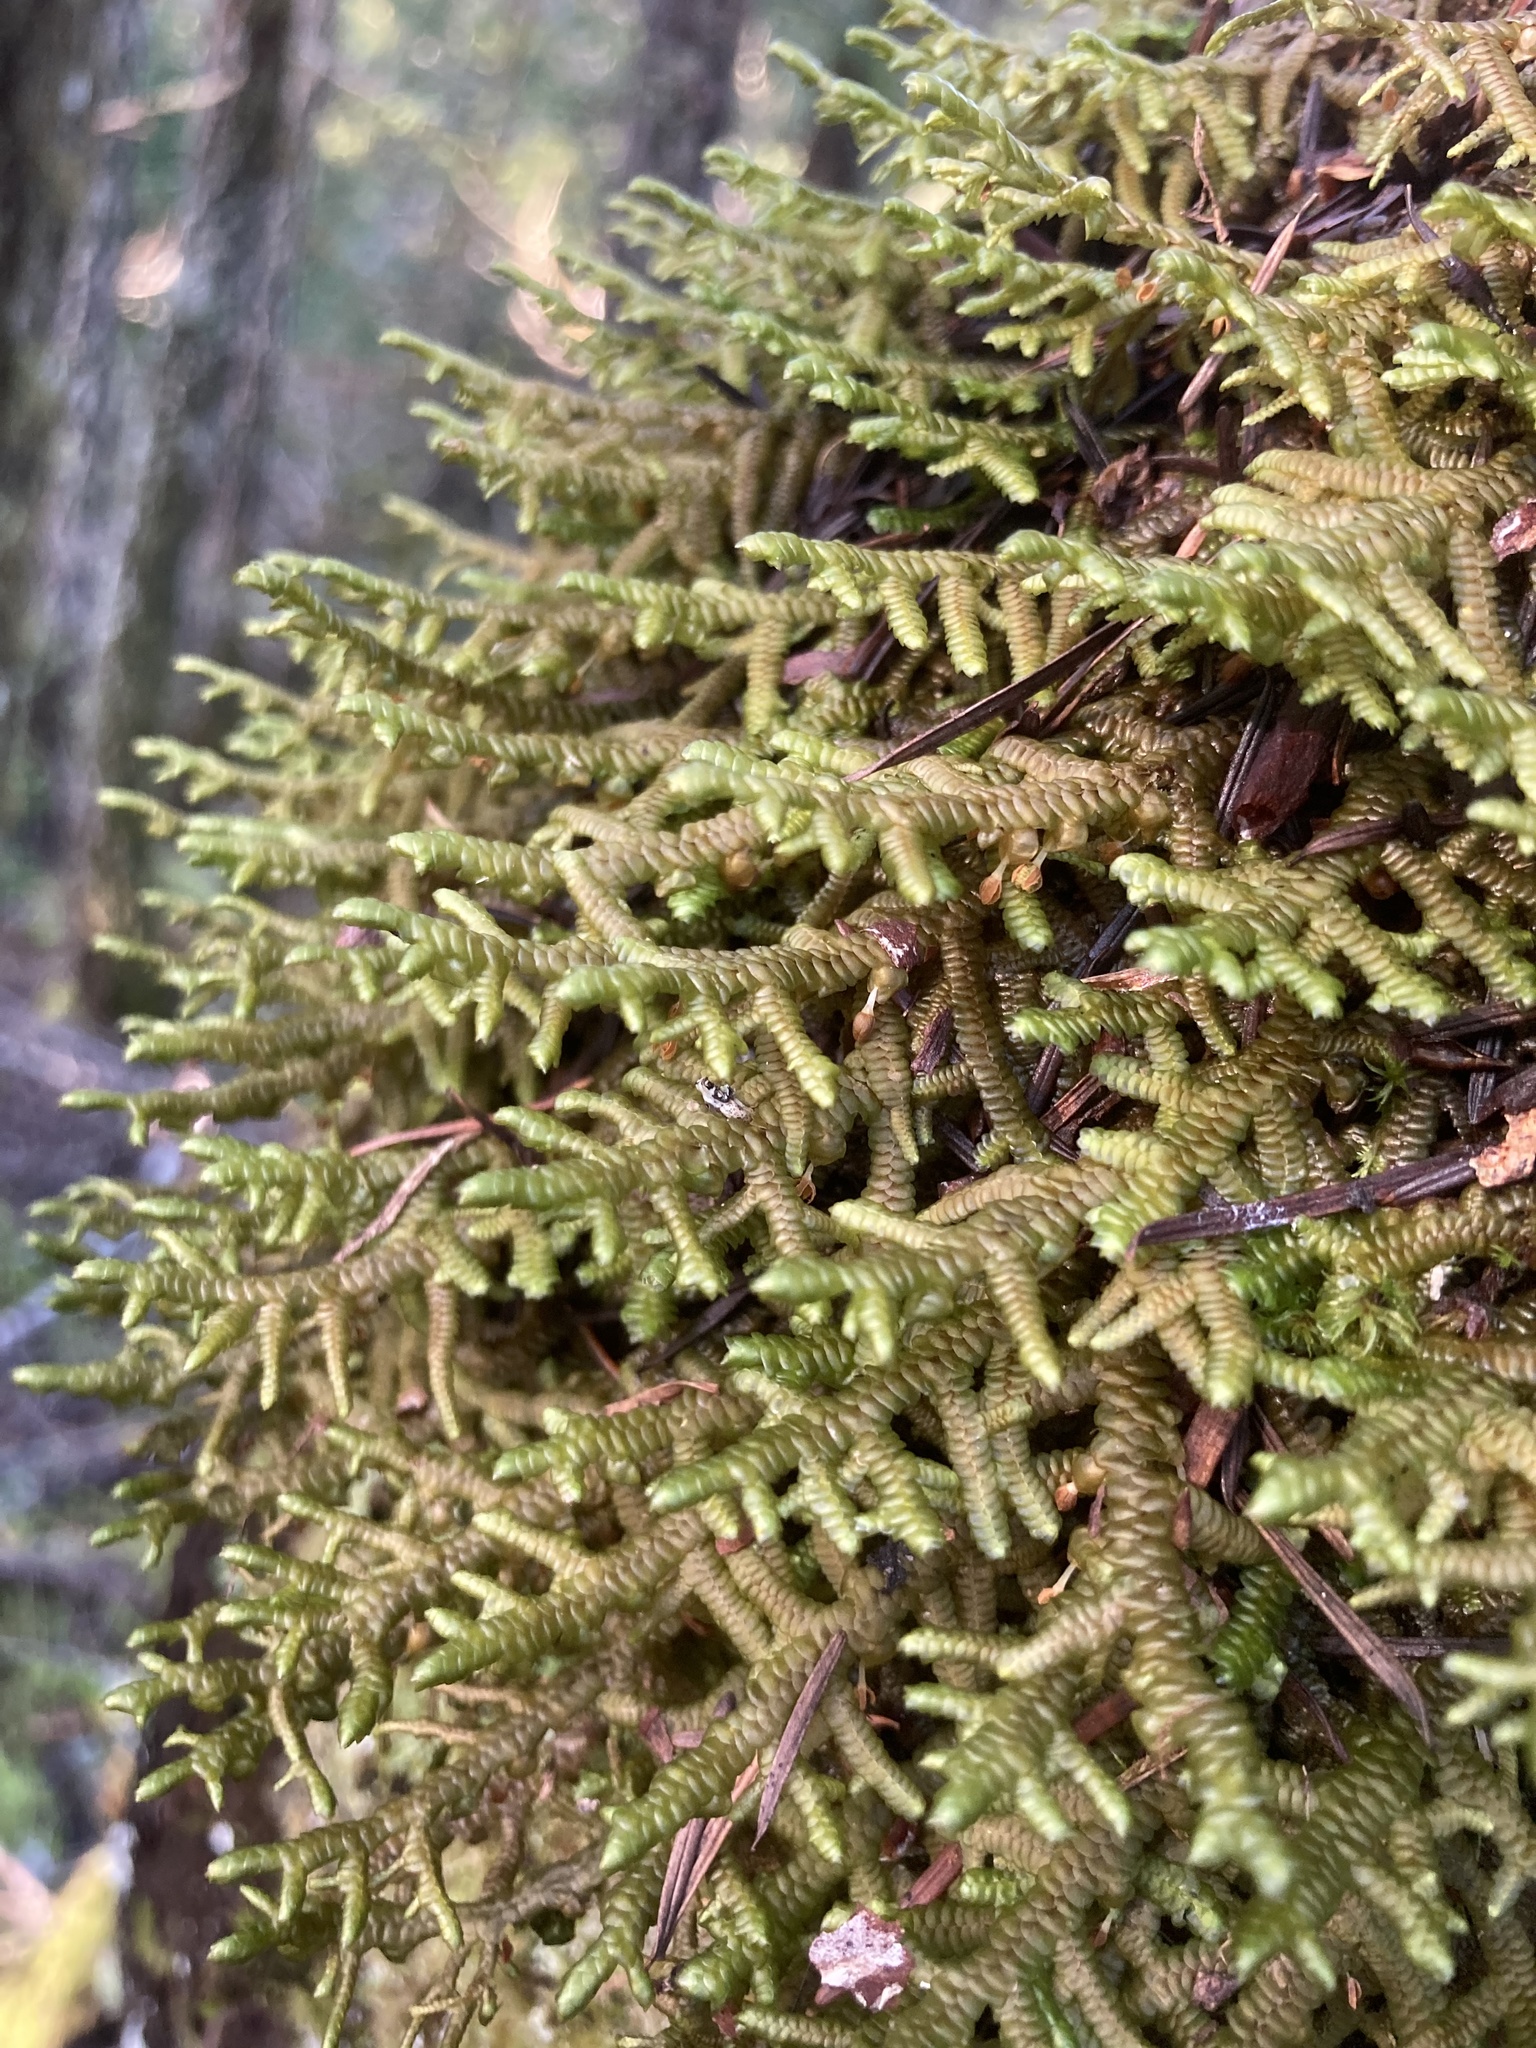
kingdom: Plantae
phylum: Marchantiophyta
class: Jungermanniopsida
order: Porellales
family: Porellaceae
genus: Porella
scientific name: Porella navicularis
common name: Tree ruffle liverwort
